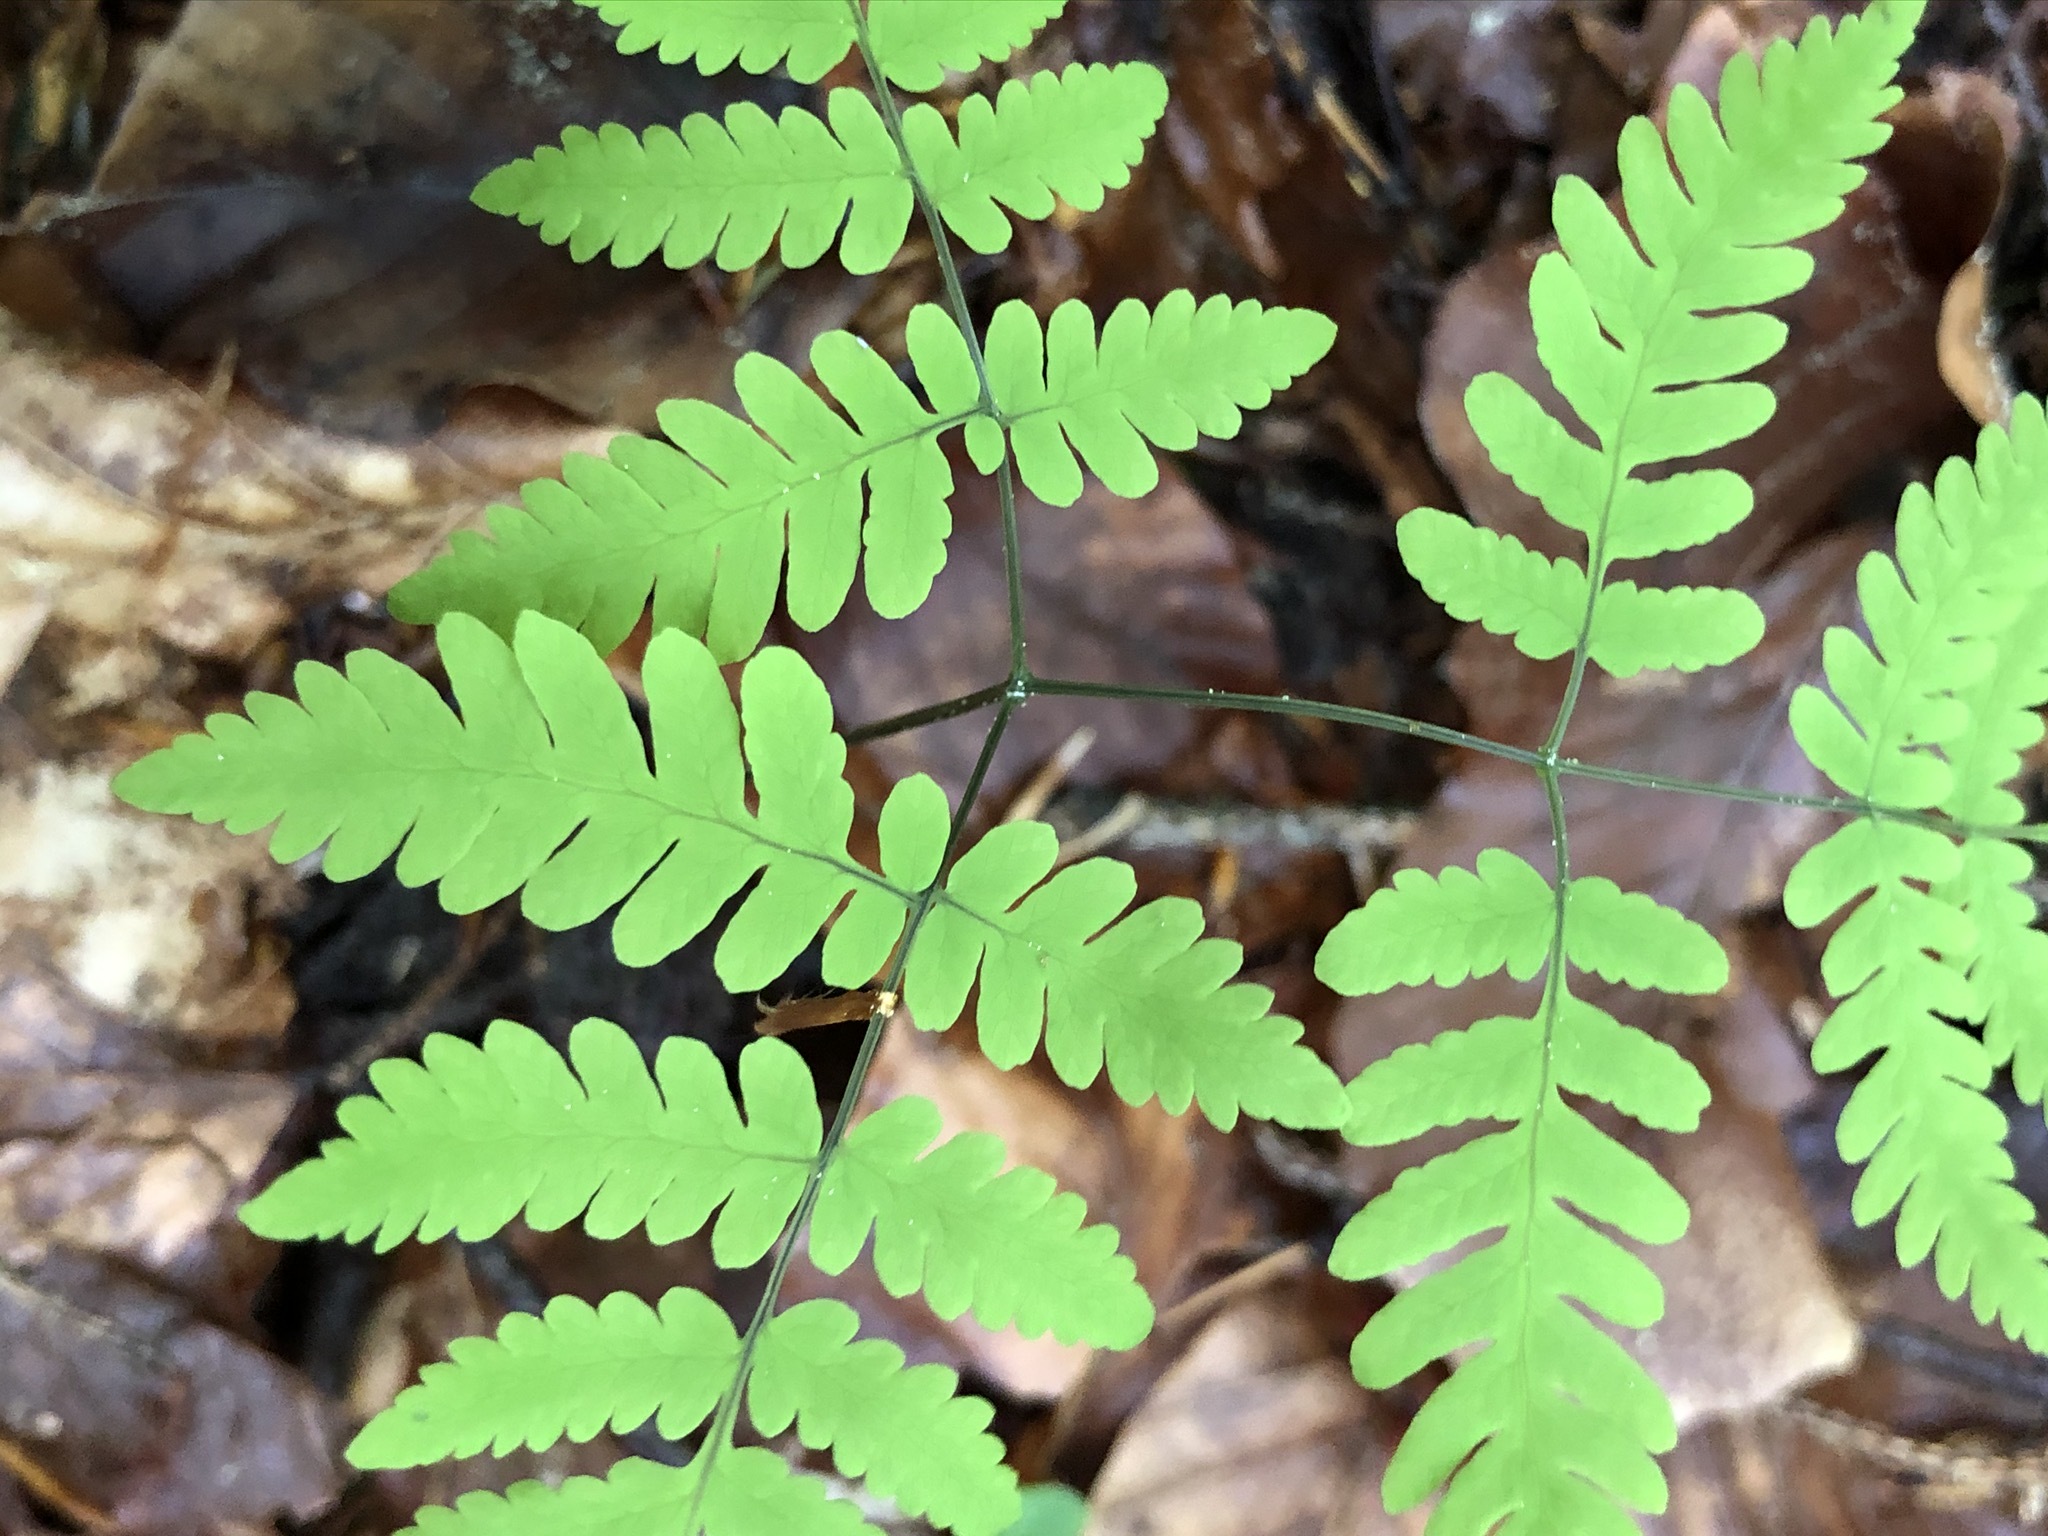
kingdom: Plantae
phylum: Tracheophyta
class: Polypodiopsida
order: Polypodiales
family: Cystopteridaceae
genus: Gymnocarpium
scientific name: Gymnocarpium dryopteris
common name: Oak fern
